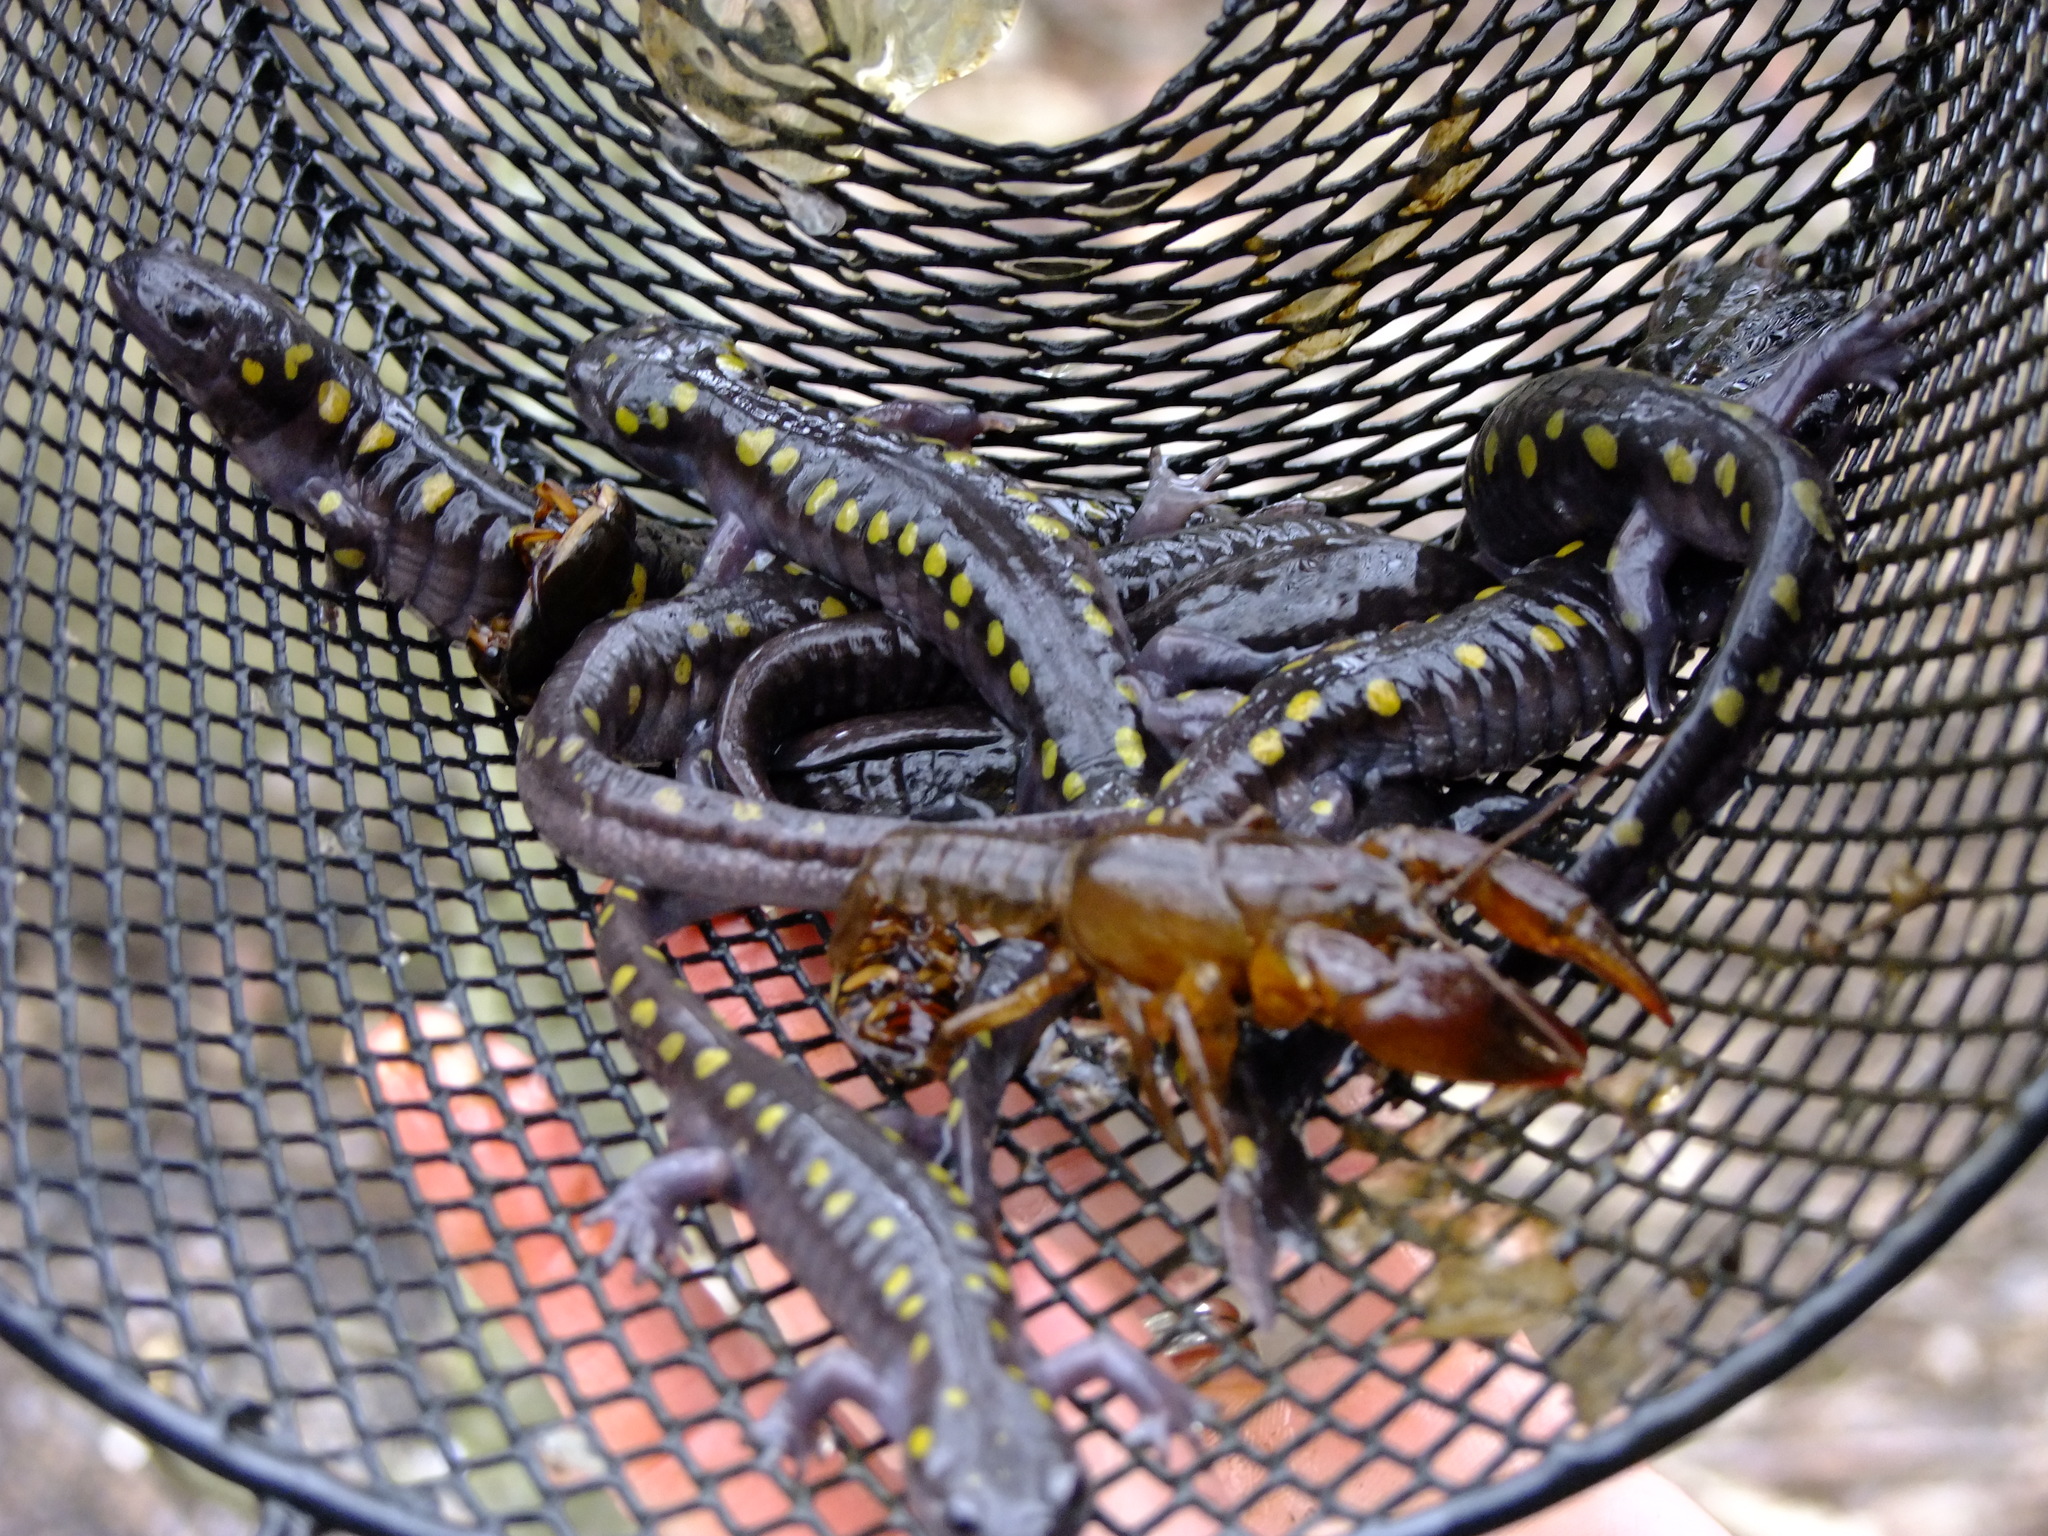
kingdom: Animalia
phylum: Chordata
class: Amphibia
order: Caudata
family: Ambystomatidae
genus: Ambystoma
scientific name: Ambystoma maculatum
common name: Spotted salamander
